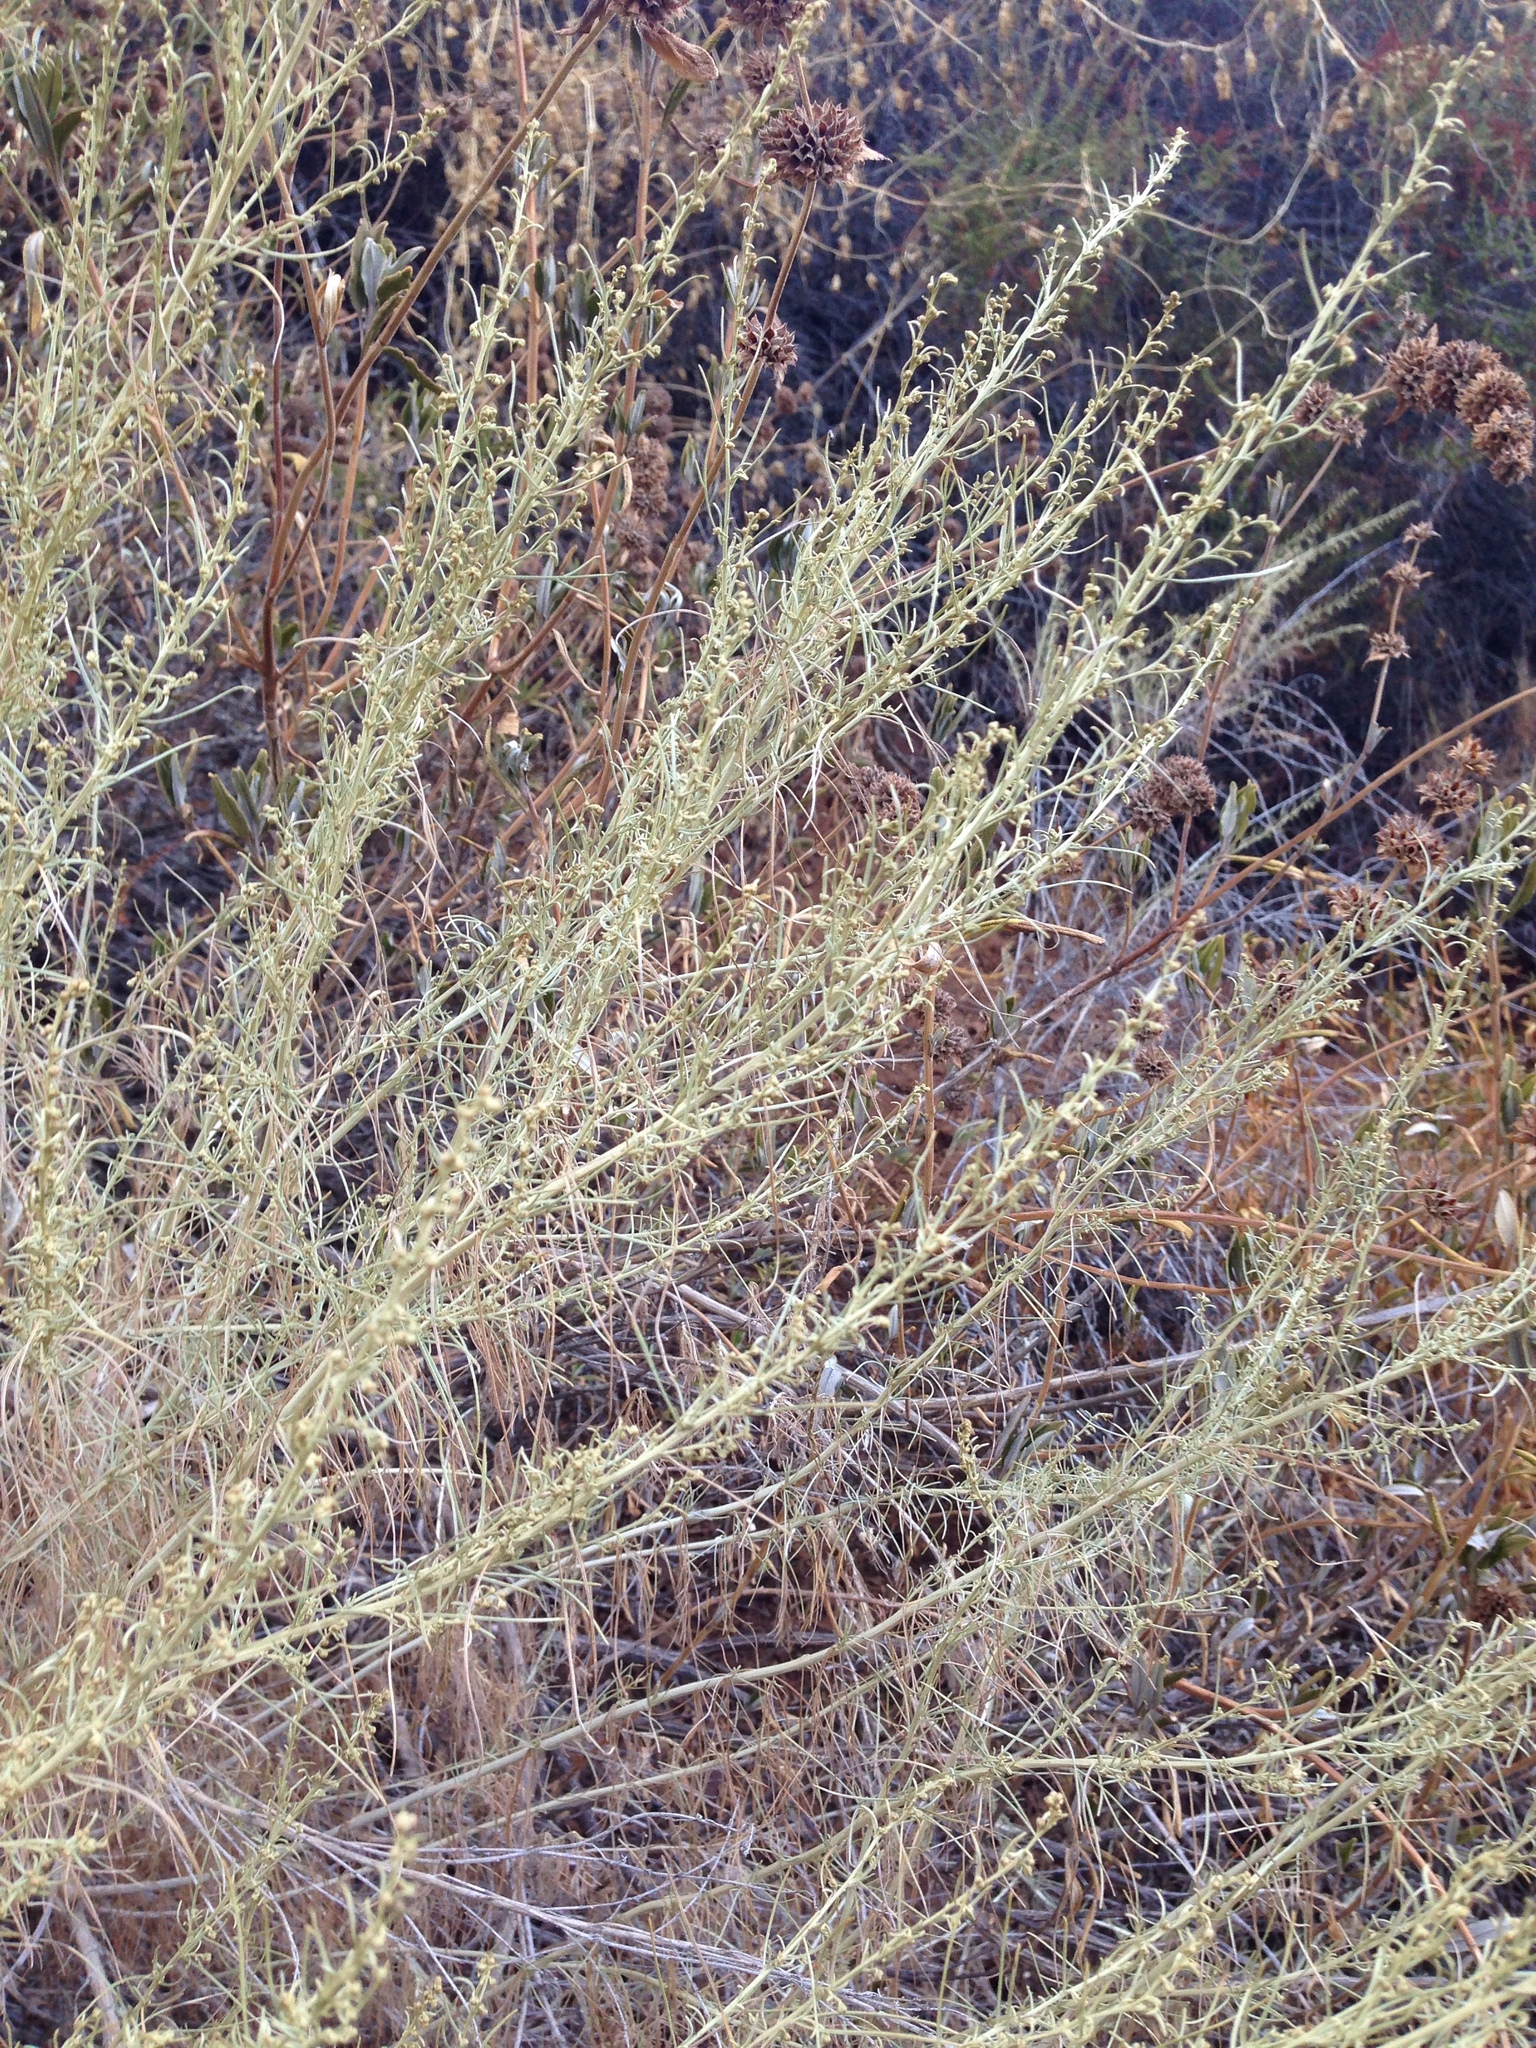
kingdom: Plantae
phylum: Tracheophyta
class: Magnoliopsida
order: Asterales
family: Asteraceae
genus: Artemisia
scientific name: Artemisia californica
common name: California sagebrush
